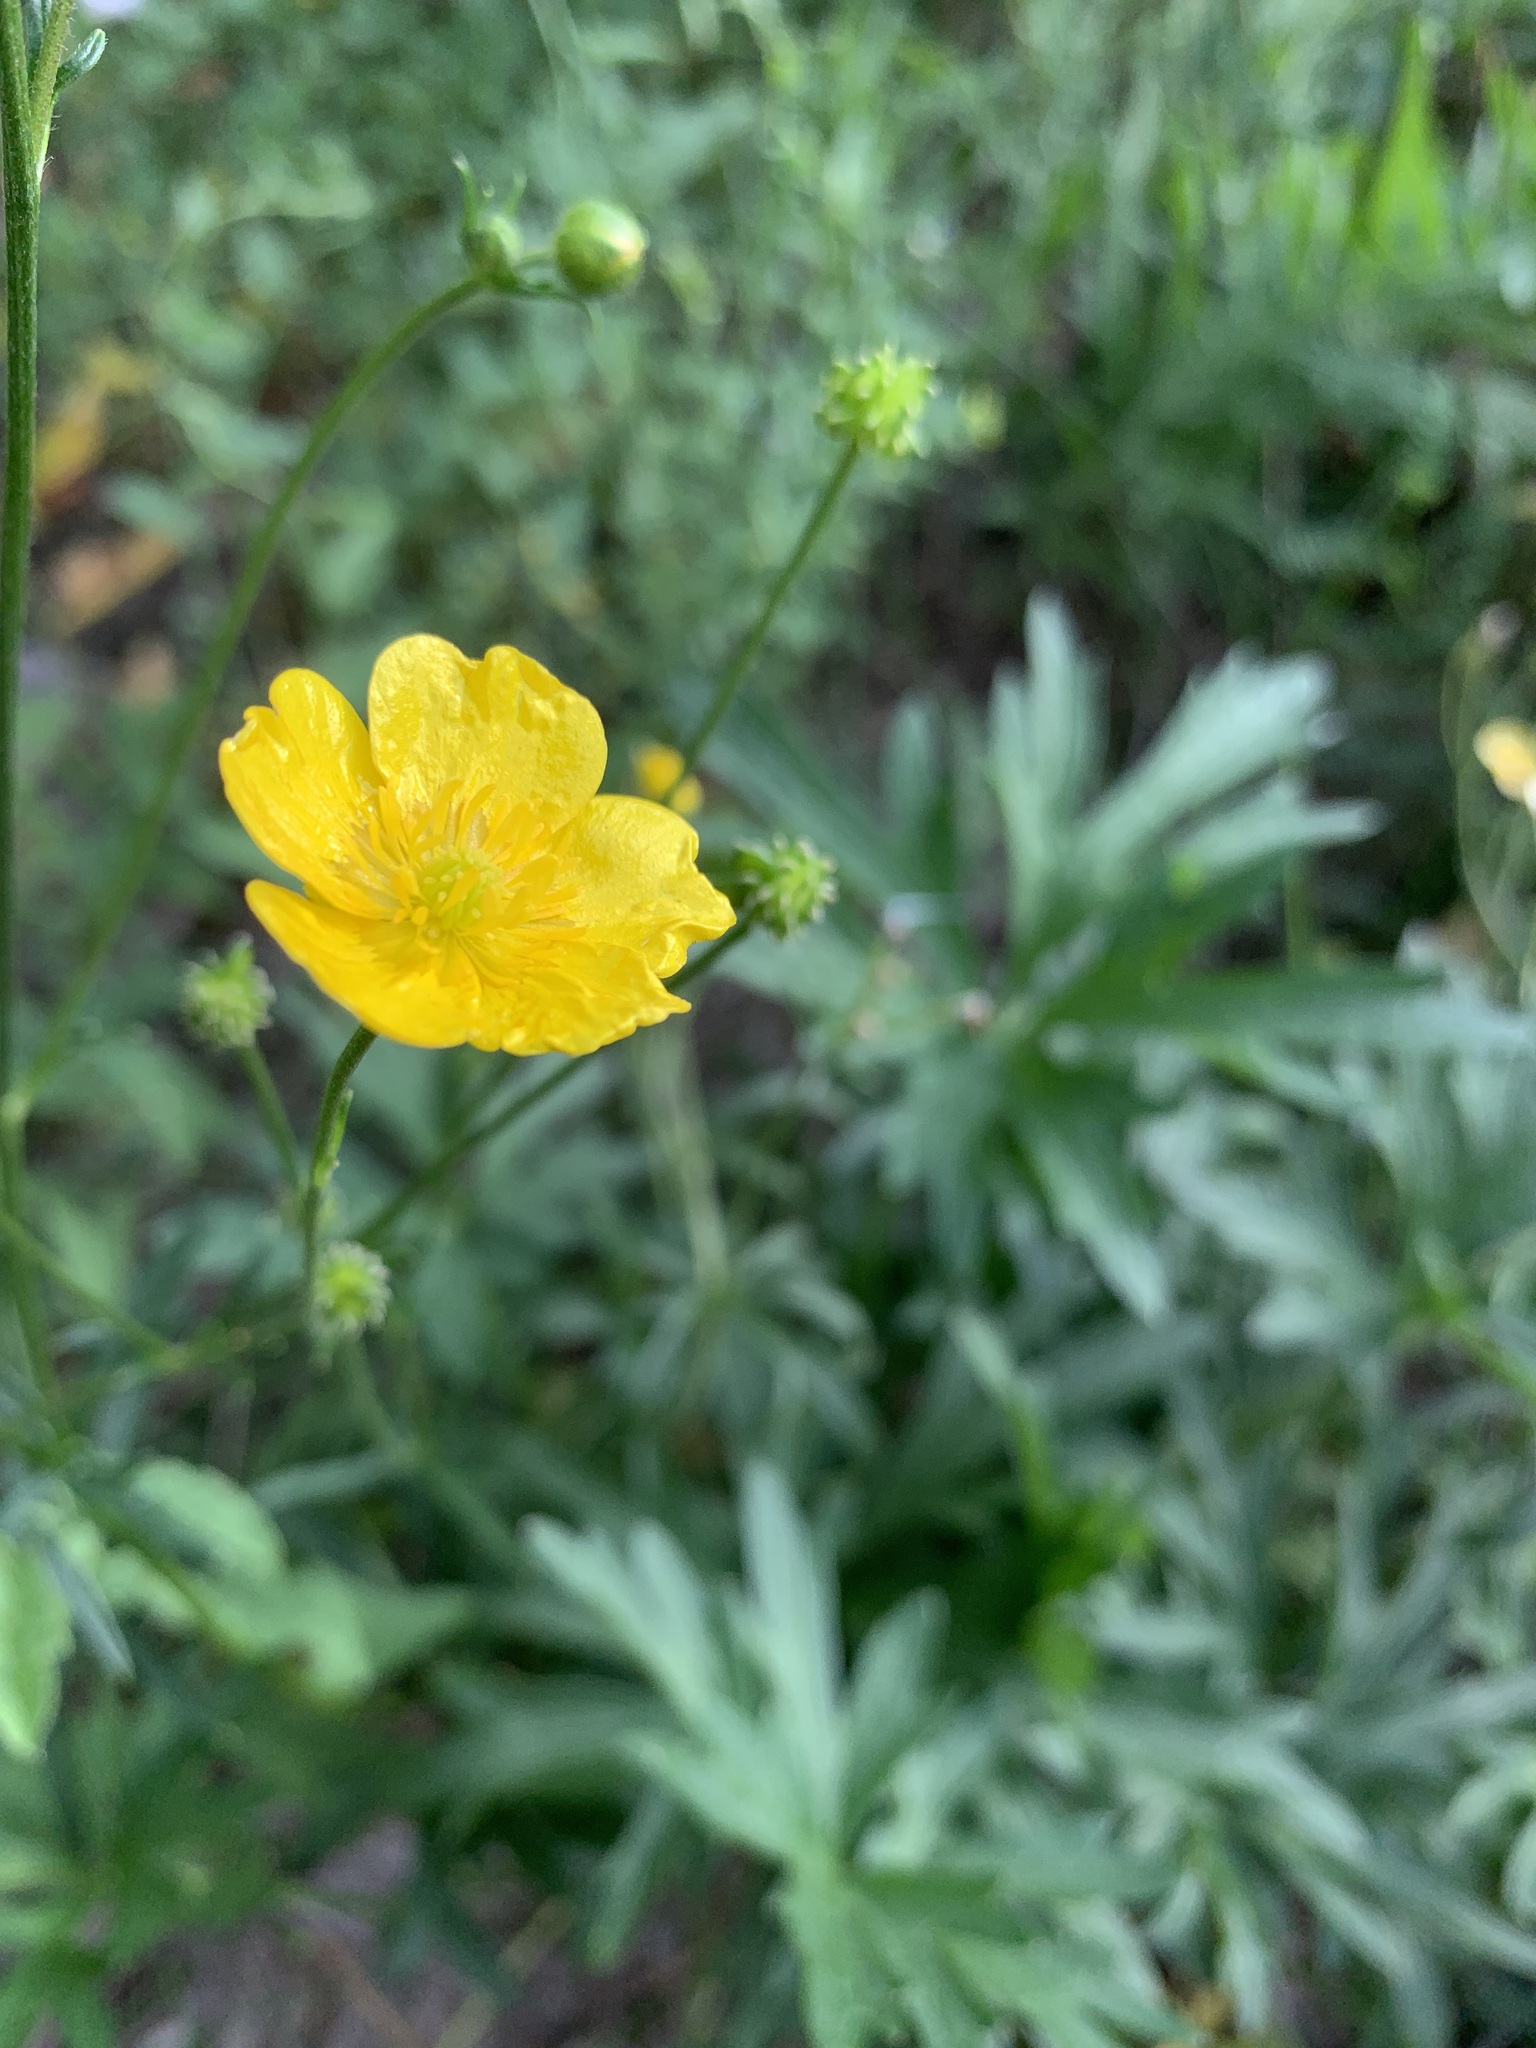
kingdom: Plantae
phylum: Tracheophyta
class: Magnoliopsida
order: Ranunculales
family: Ranunculaceae
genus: Ranunculus
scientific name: Ranunculus polyanthemos
